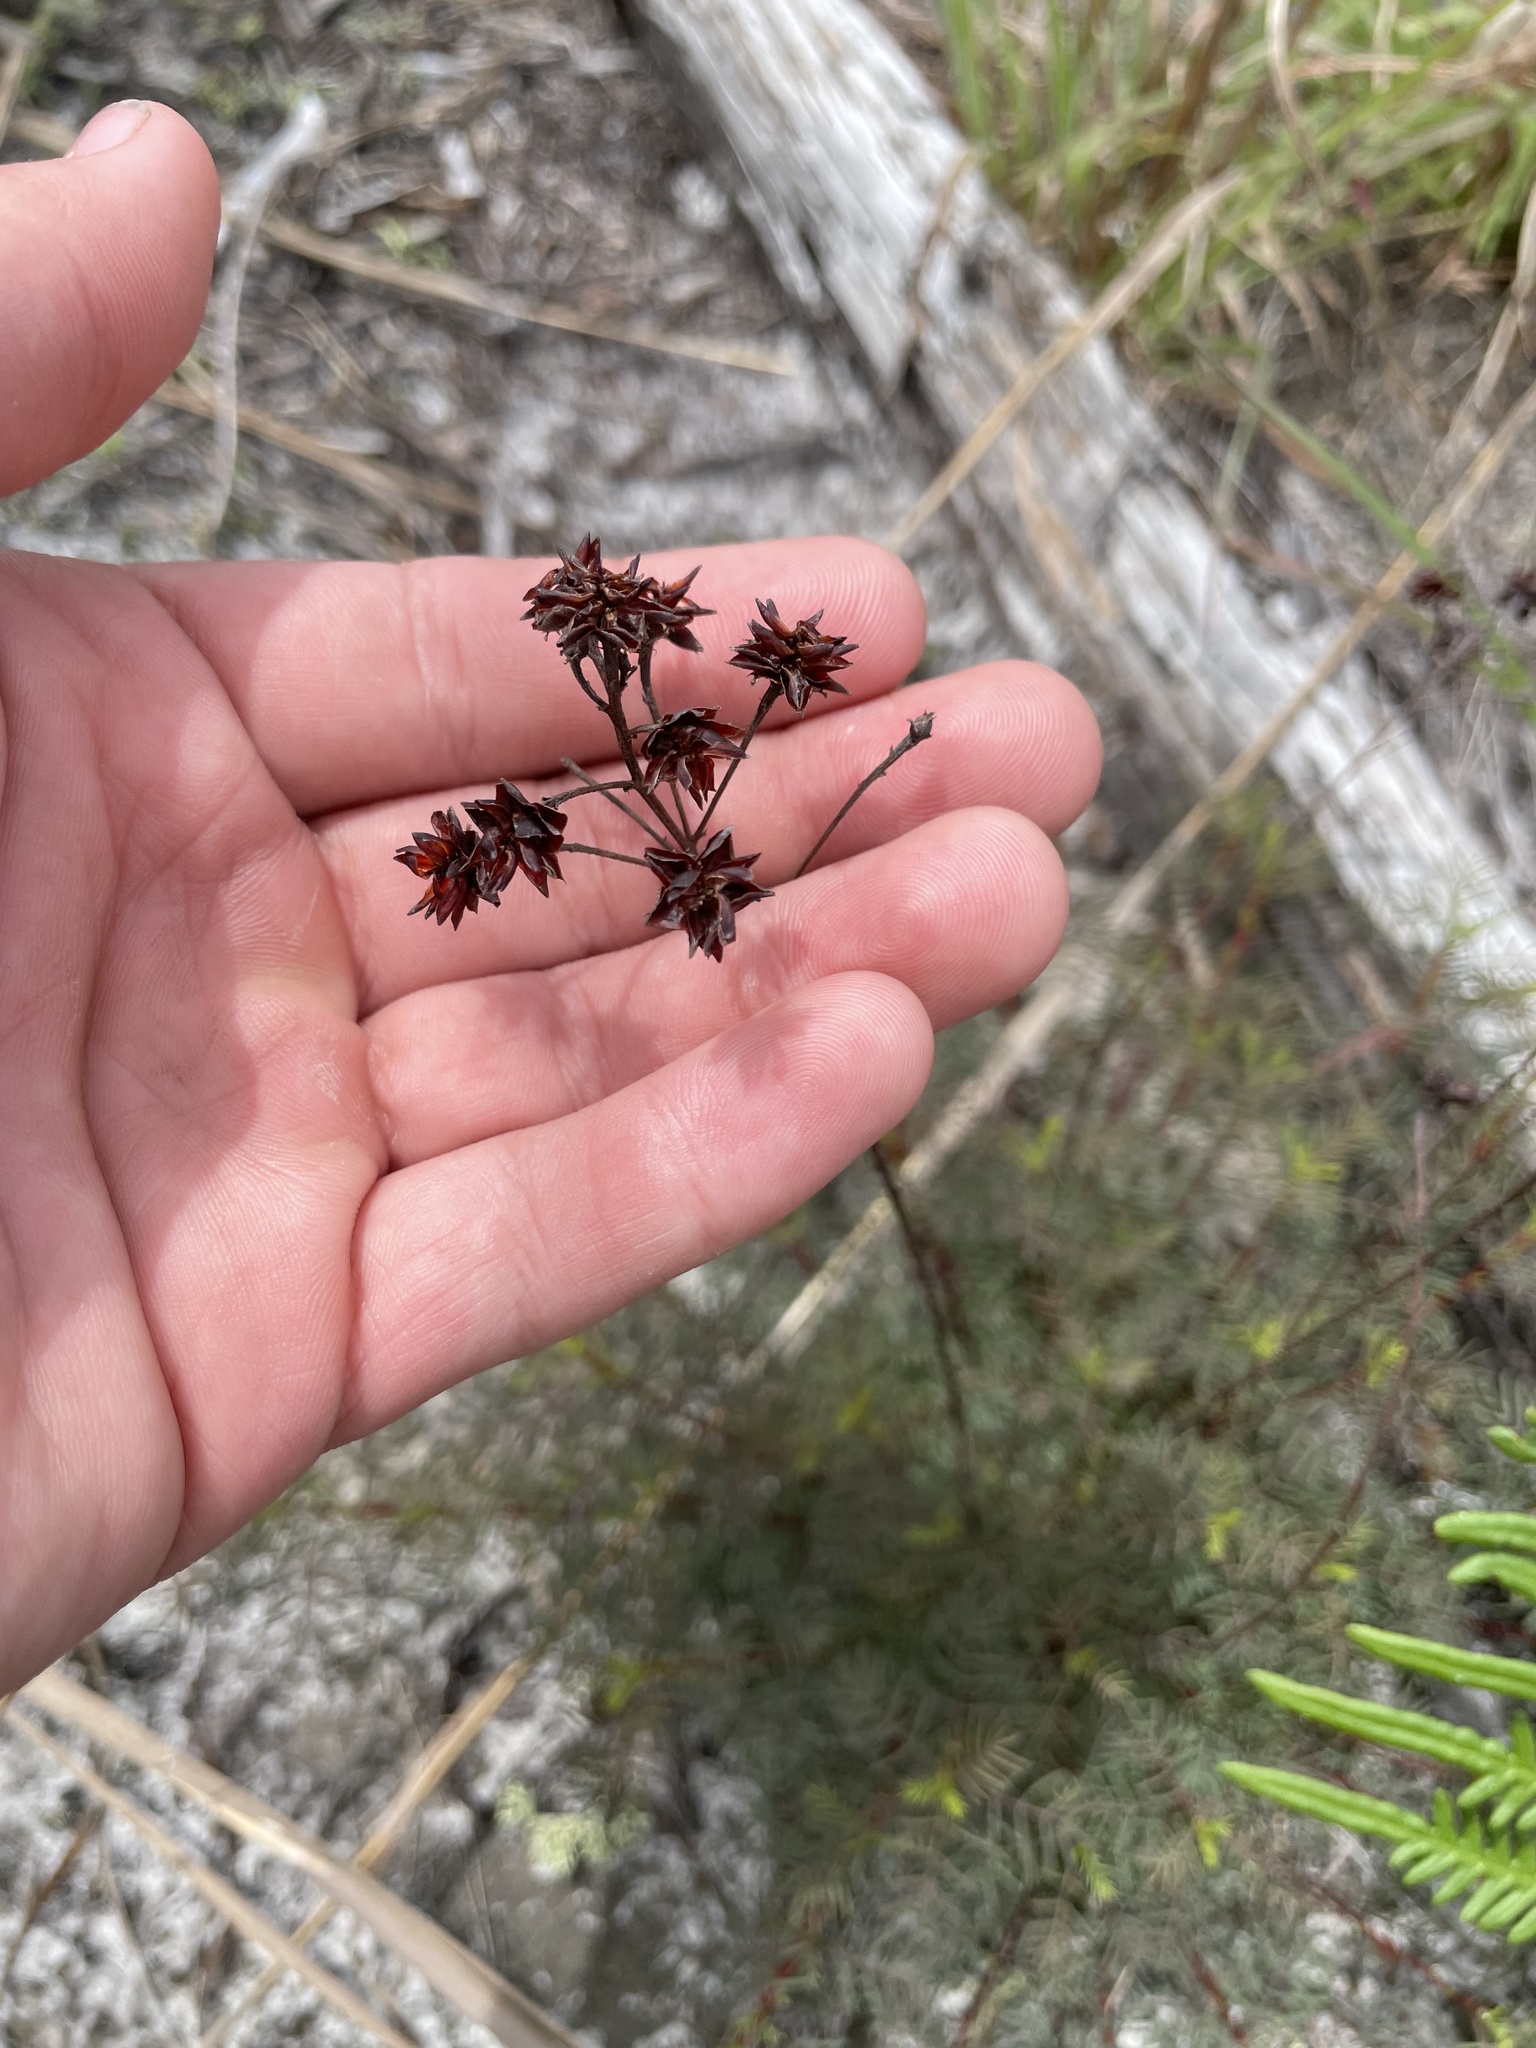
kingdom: Plantae
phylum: Tracheophyta
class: Magnoliopsida
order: Fabales
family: Fabaceae
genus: Dalea
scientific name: Dalea pinnata
